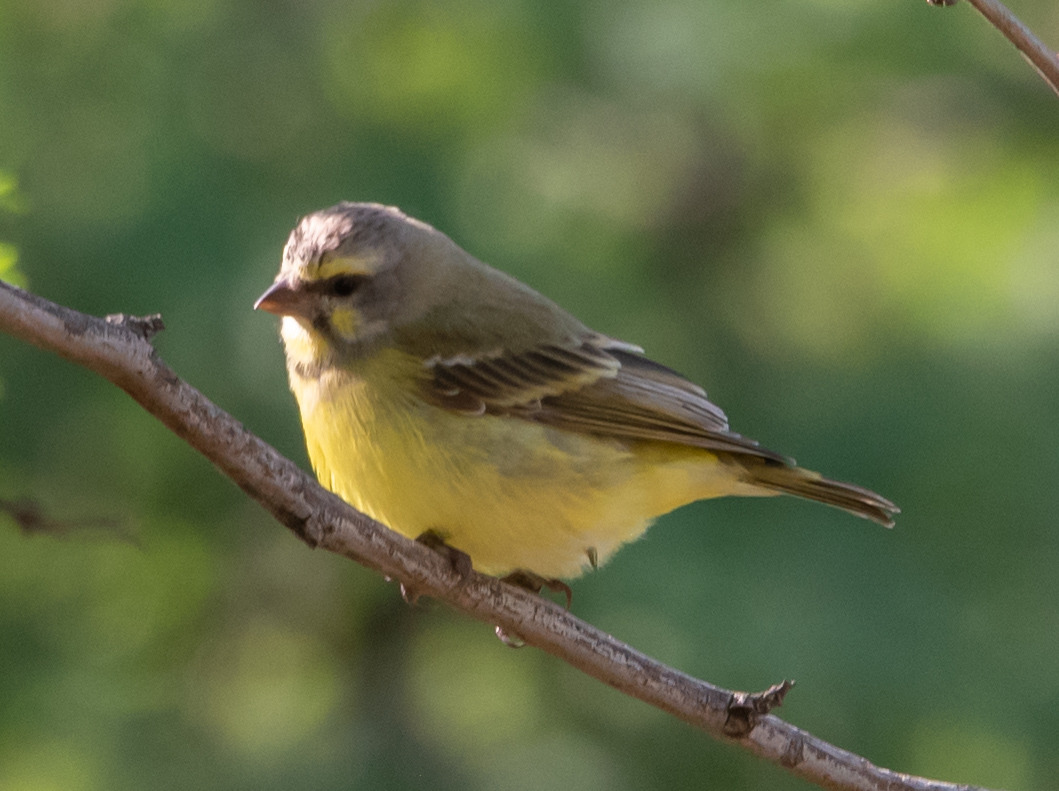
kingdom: Animalia
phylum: Chordata
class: Aves
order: Passeriformes
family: Fringillidae
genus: Crithagra
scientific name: Crithagra mozambica
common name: Yellow-fronted canary
